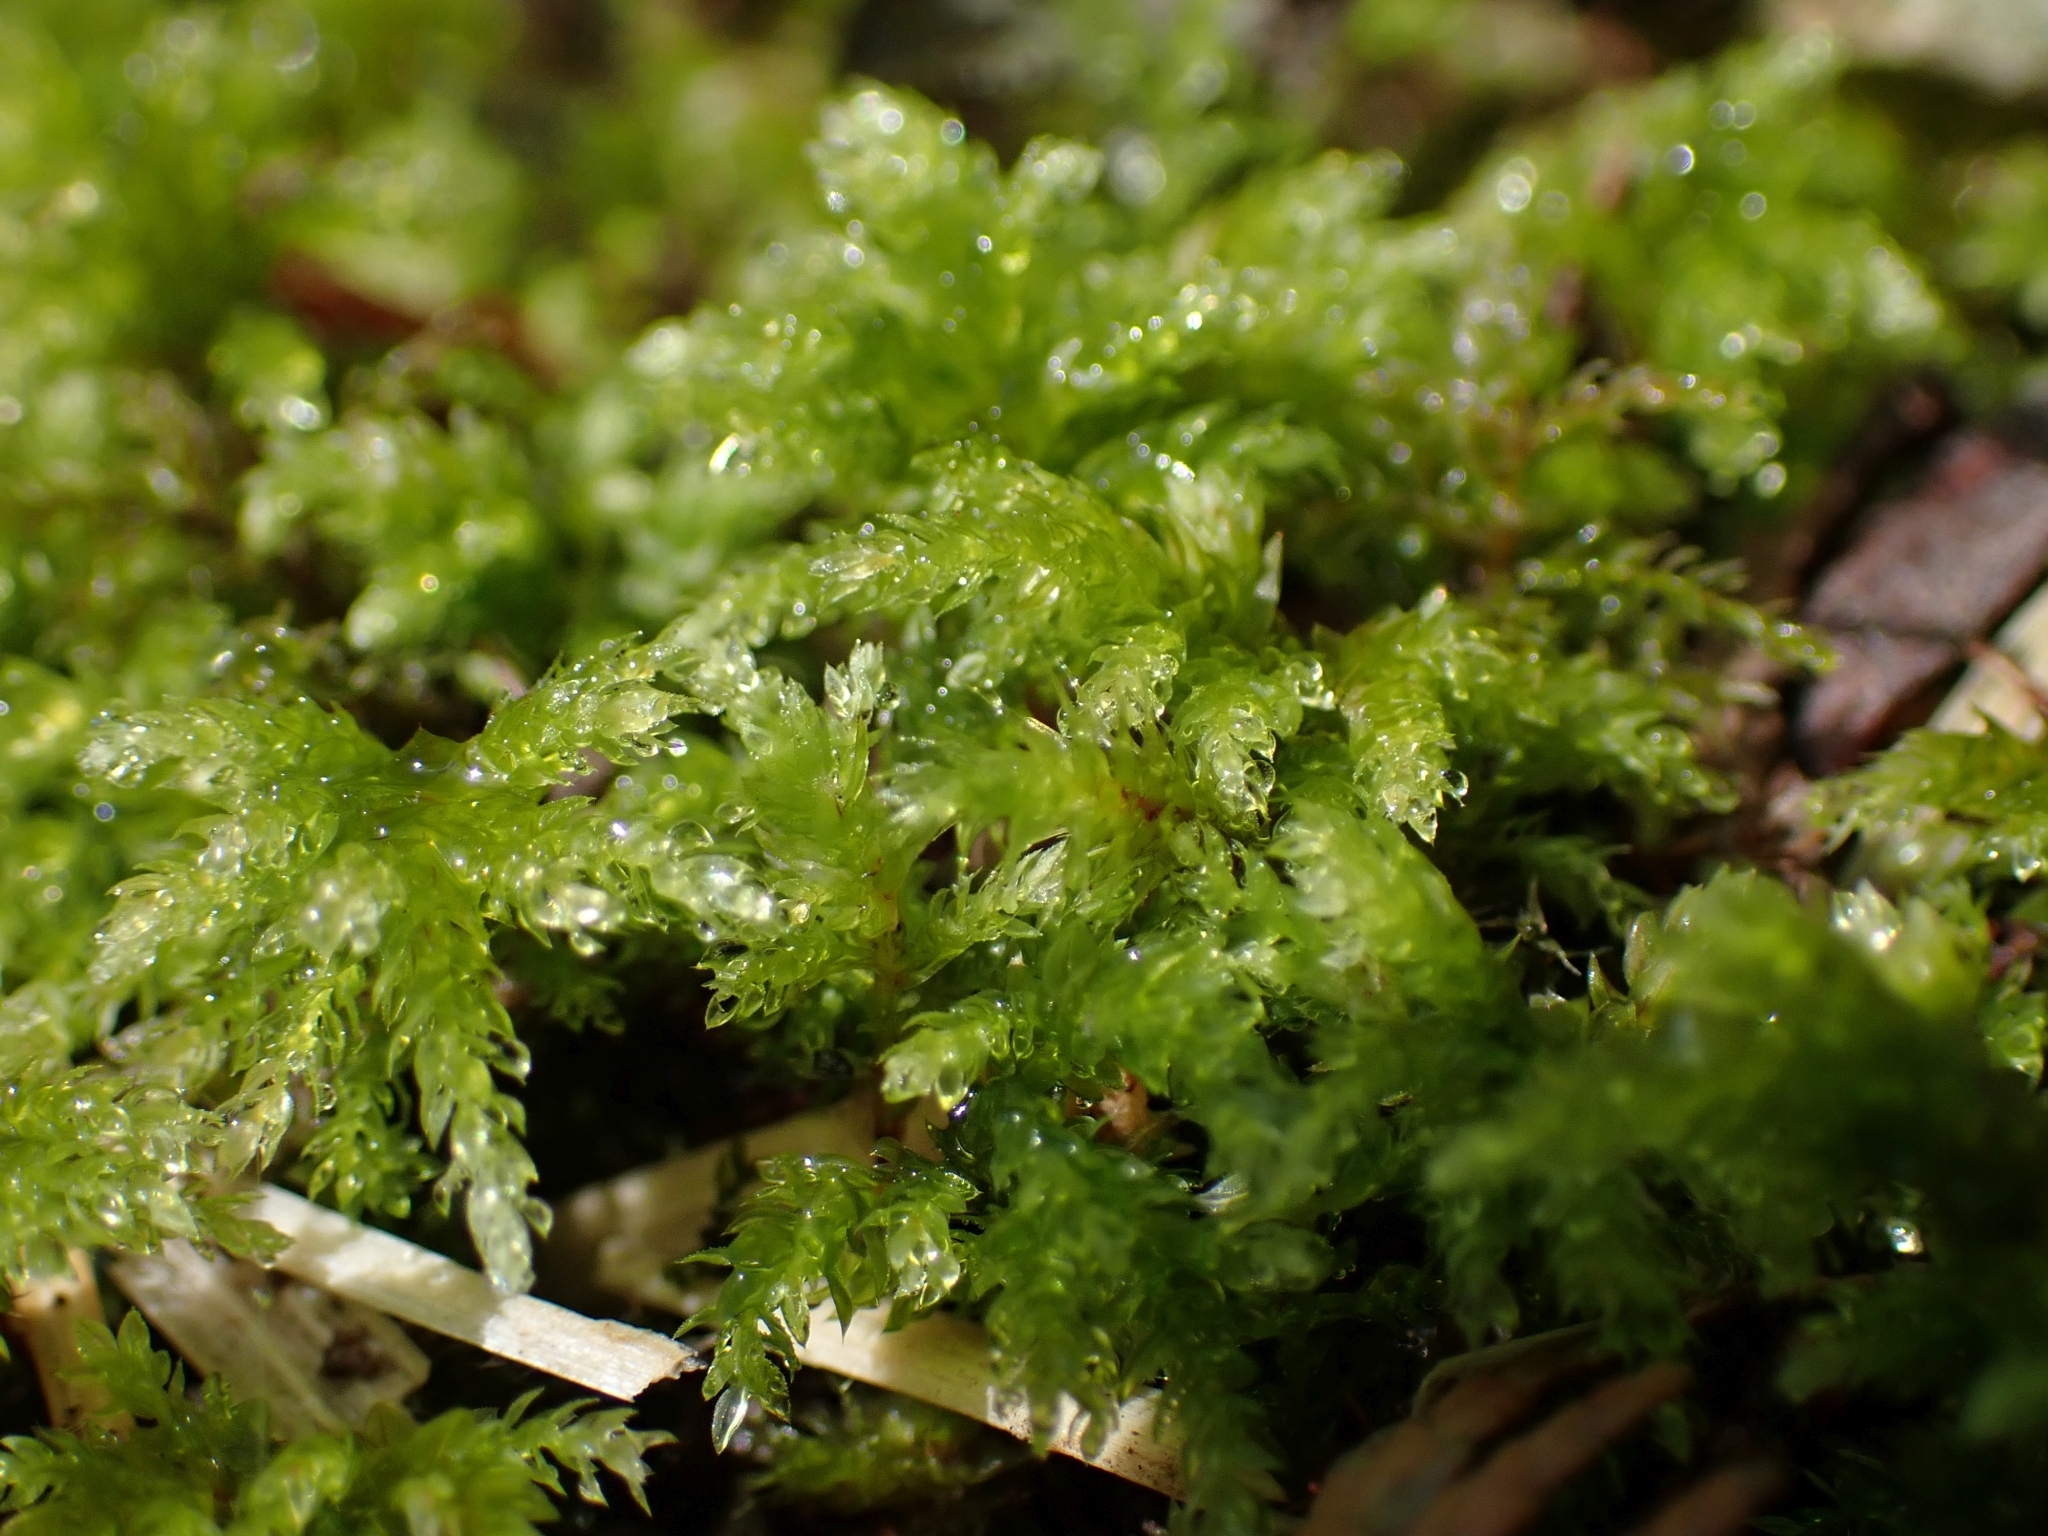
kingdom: Plantae
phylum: Bryophyta
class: Bryopsida
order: Bryales
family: Mniaceae
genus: Leucolepis
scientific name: Leucolepis acanthoneura
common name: Leucolepis umbrella moss
